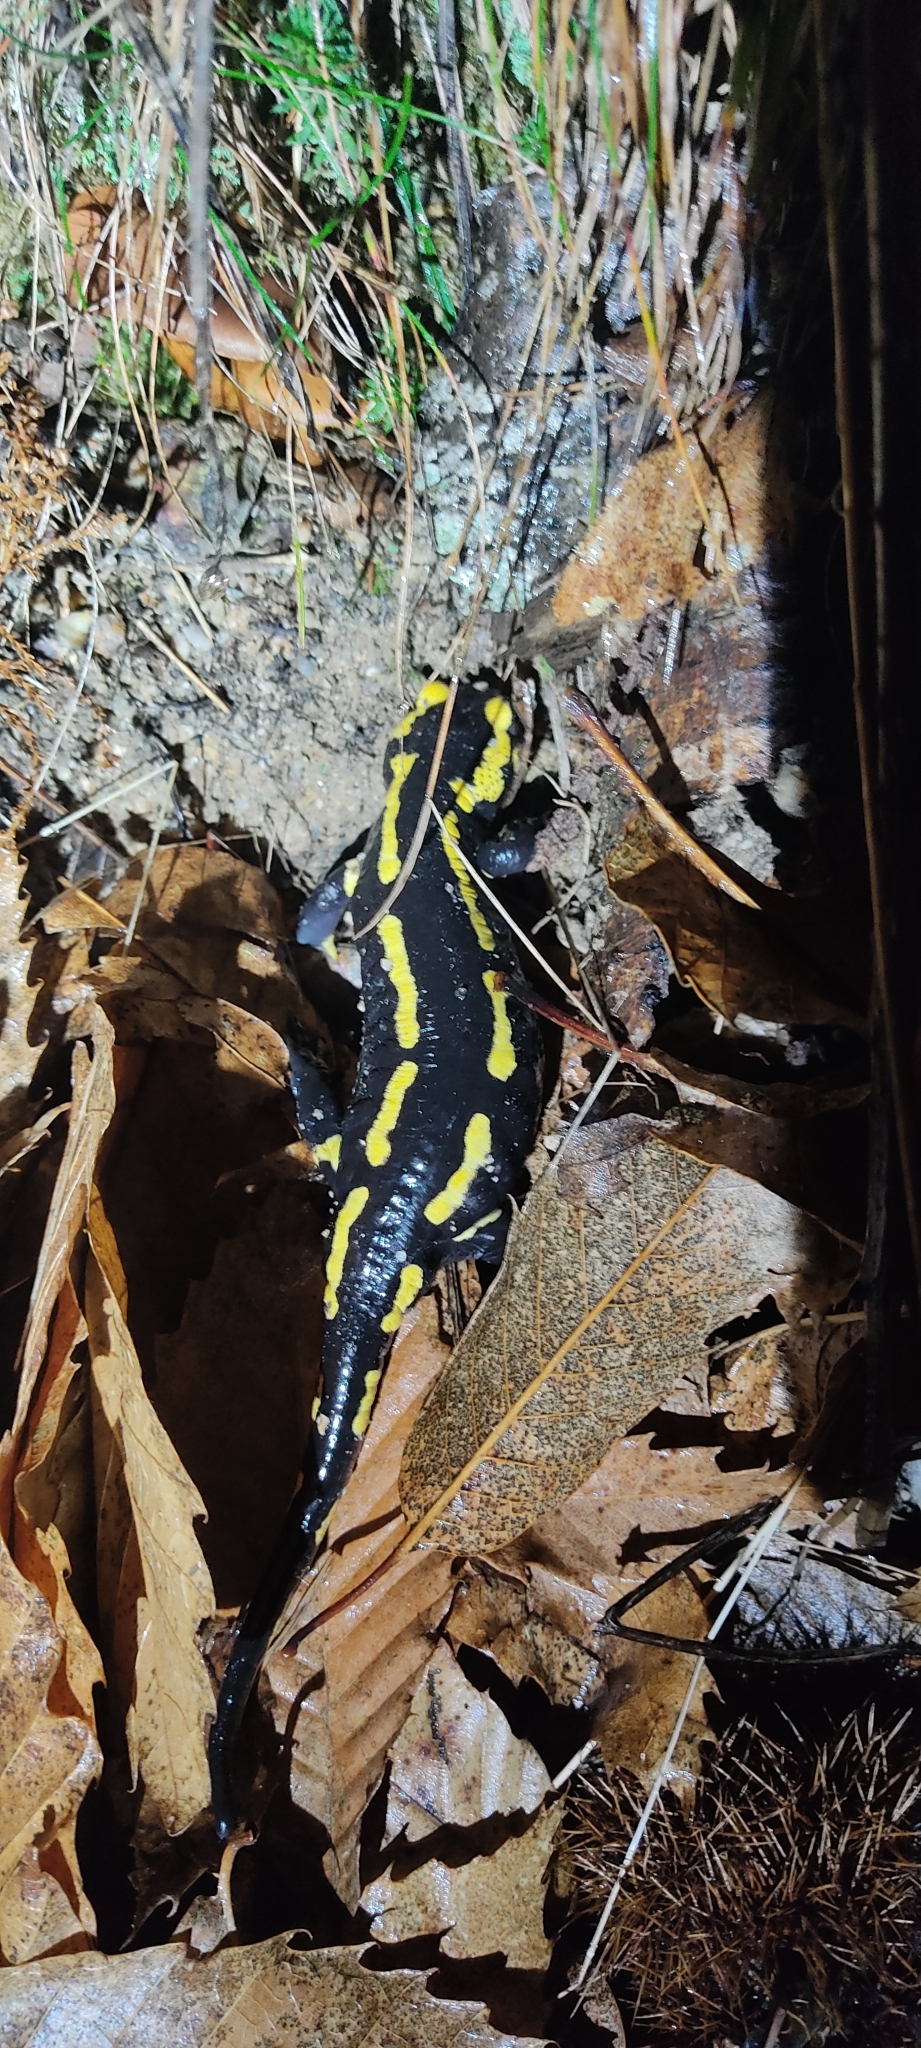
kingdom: Animalia
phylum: Chordata
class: Amphibia
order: Caudata
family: Salamandridae
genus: Salamandra
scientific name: Salamandra salamandra
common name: Fire salamander
